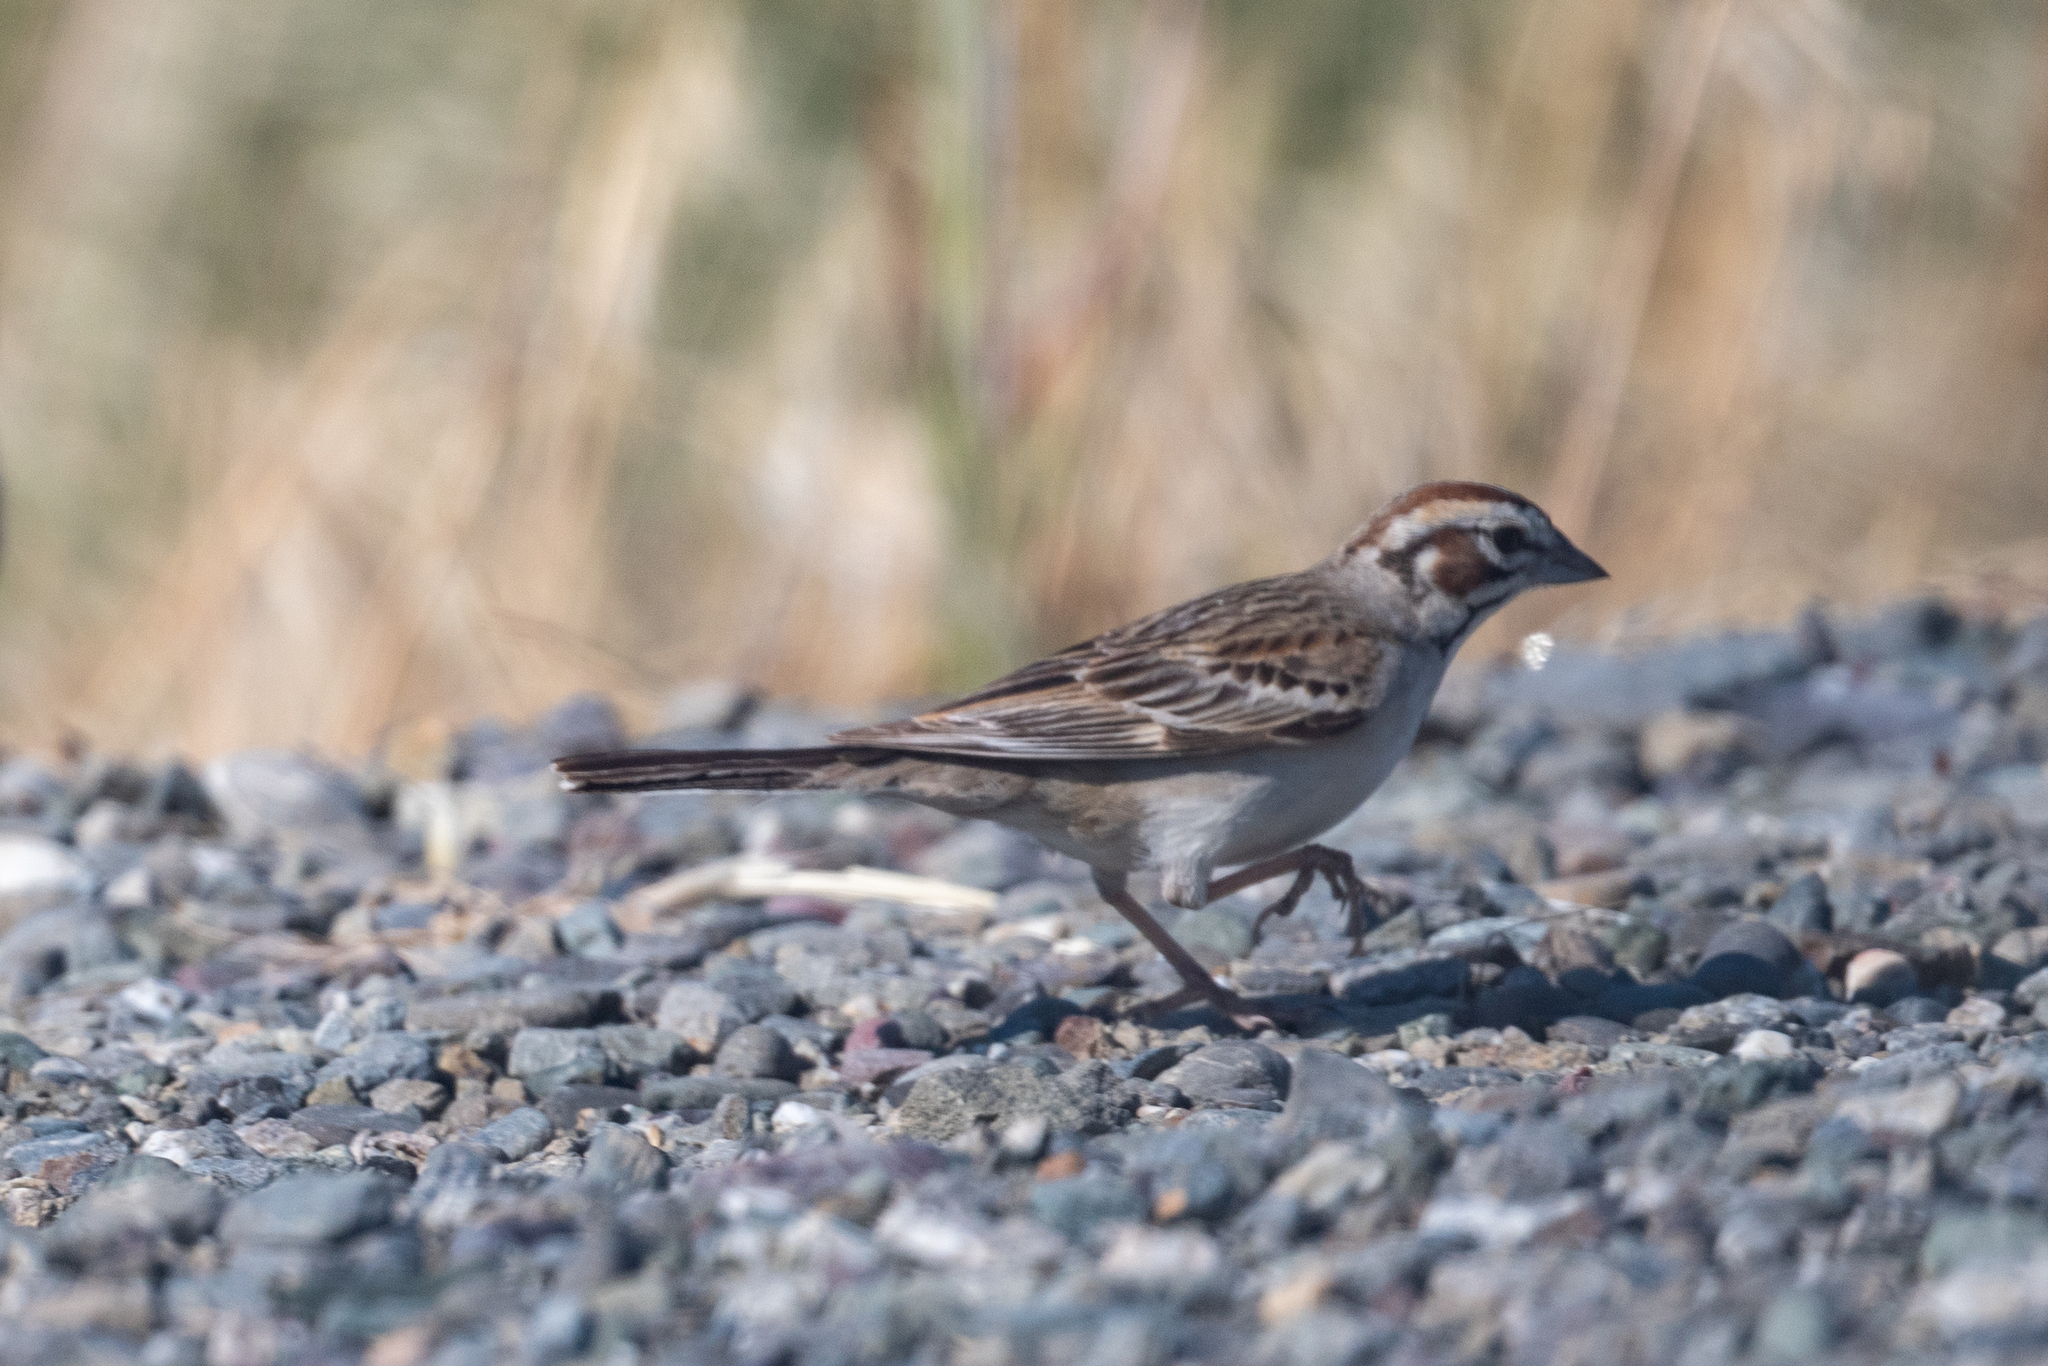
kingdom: Animalia
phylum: Chordata
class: Aves
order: Passeriformes
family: Passerellidae
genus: Chondestes
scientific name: Chondestes grammacus
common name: Lark sparrow
